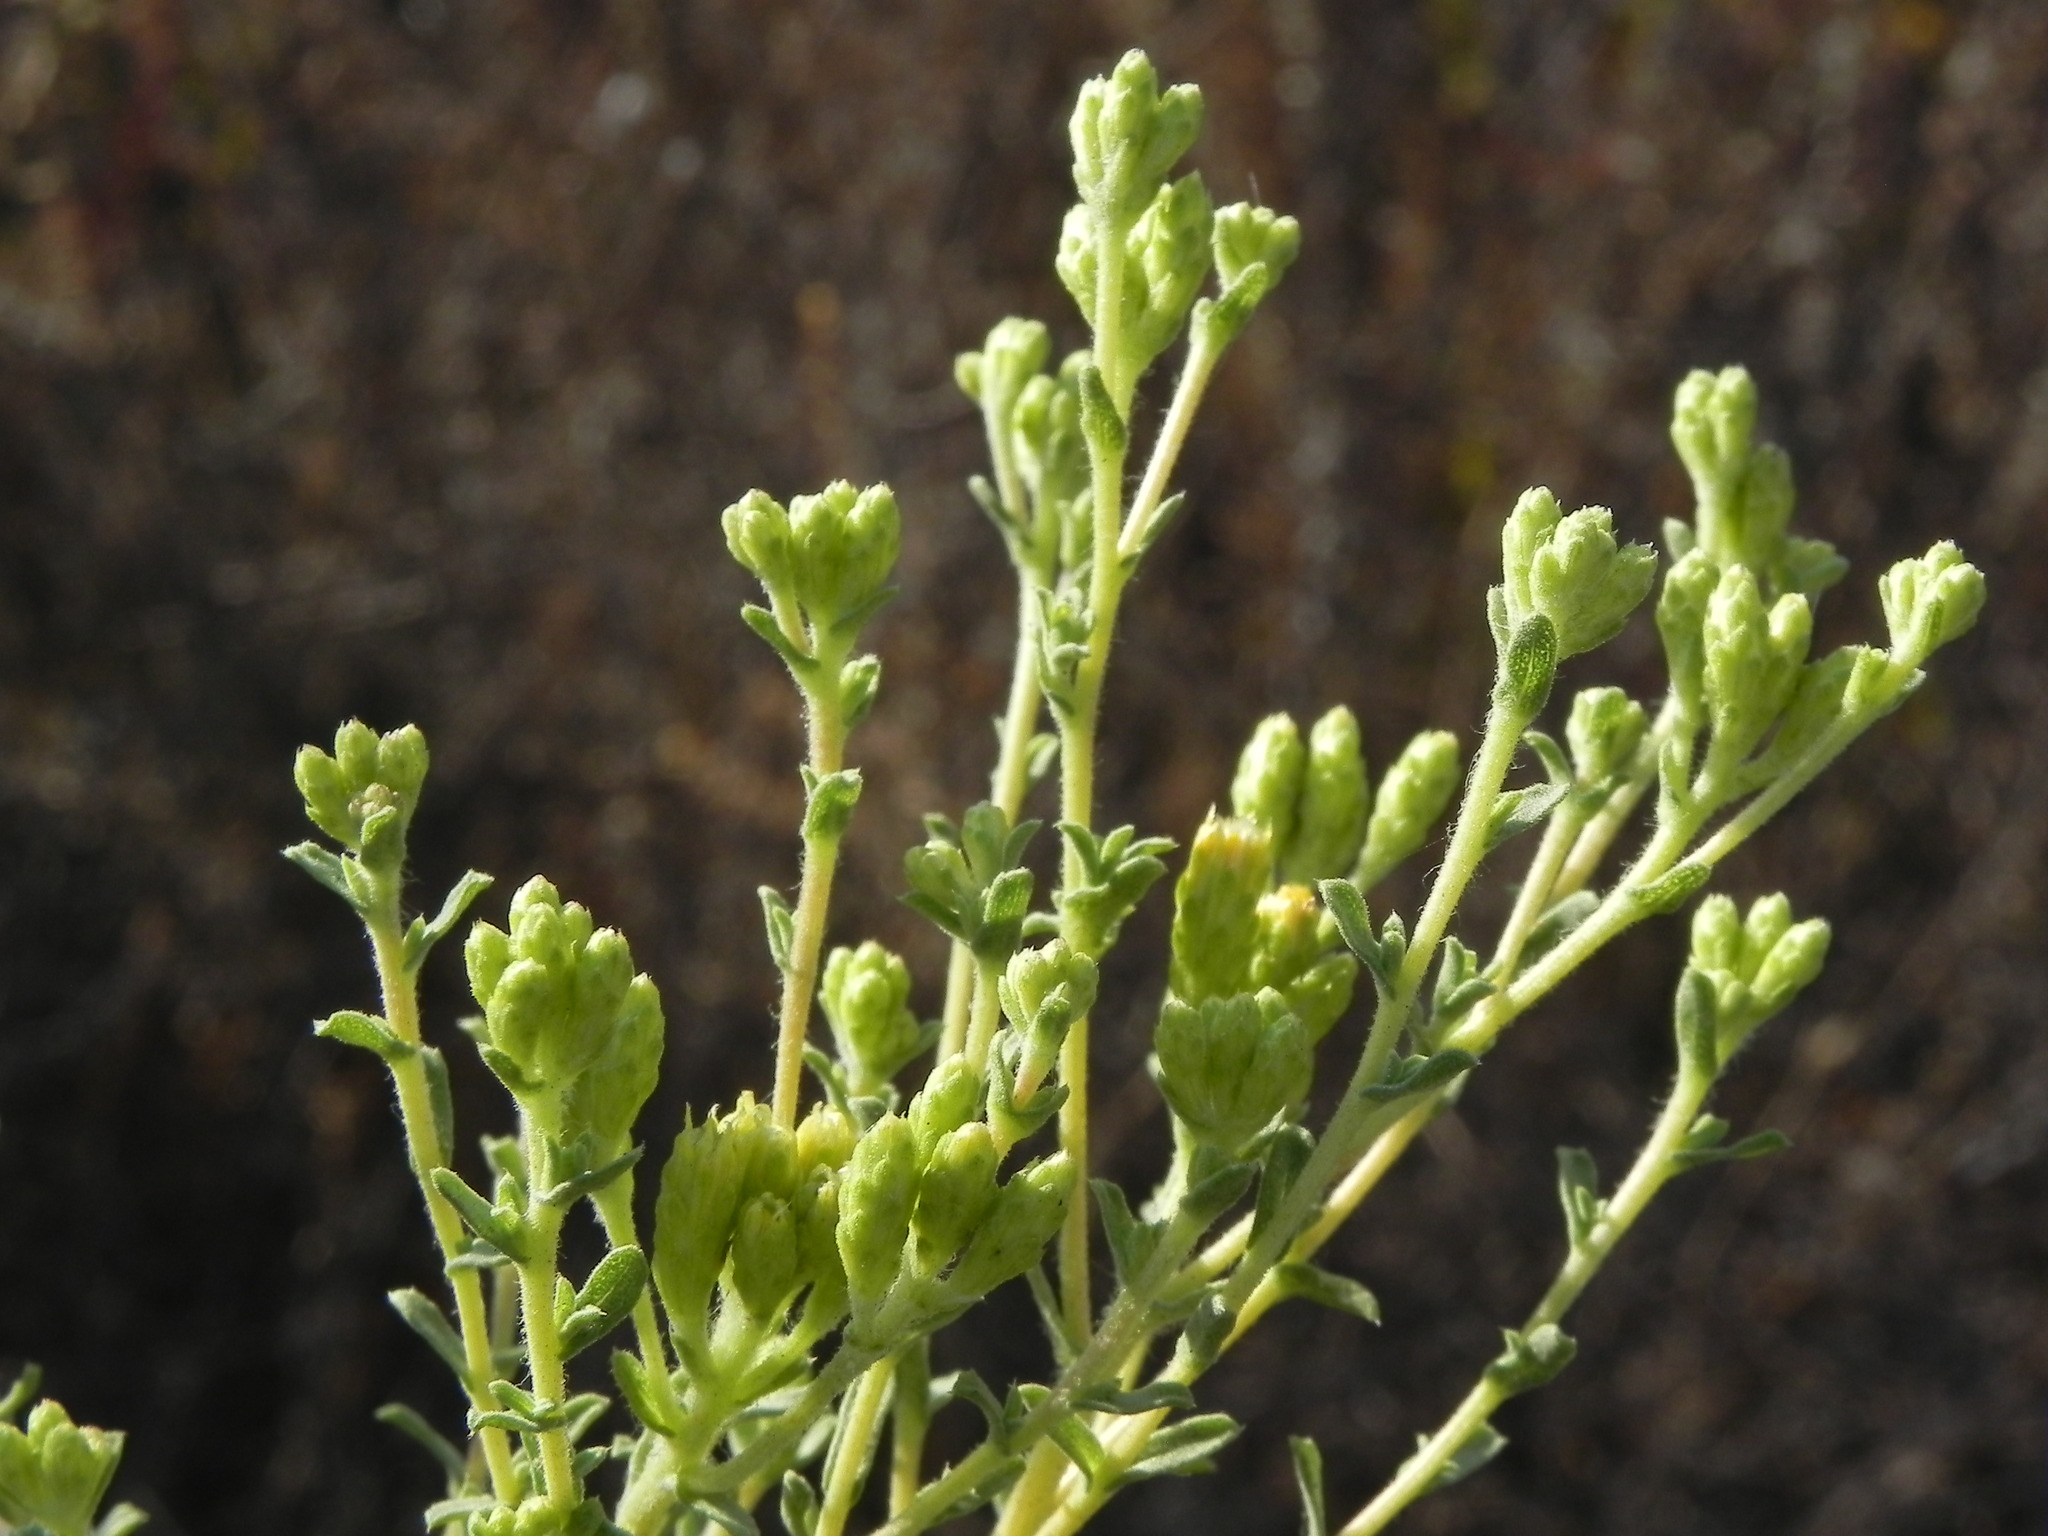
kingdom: Plantae
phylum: Tracheophyta
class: Magnoliopsida
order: Asterales
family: Asteraceae
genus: Isocoma
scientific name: Isocoma menziesii
